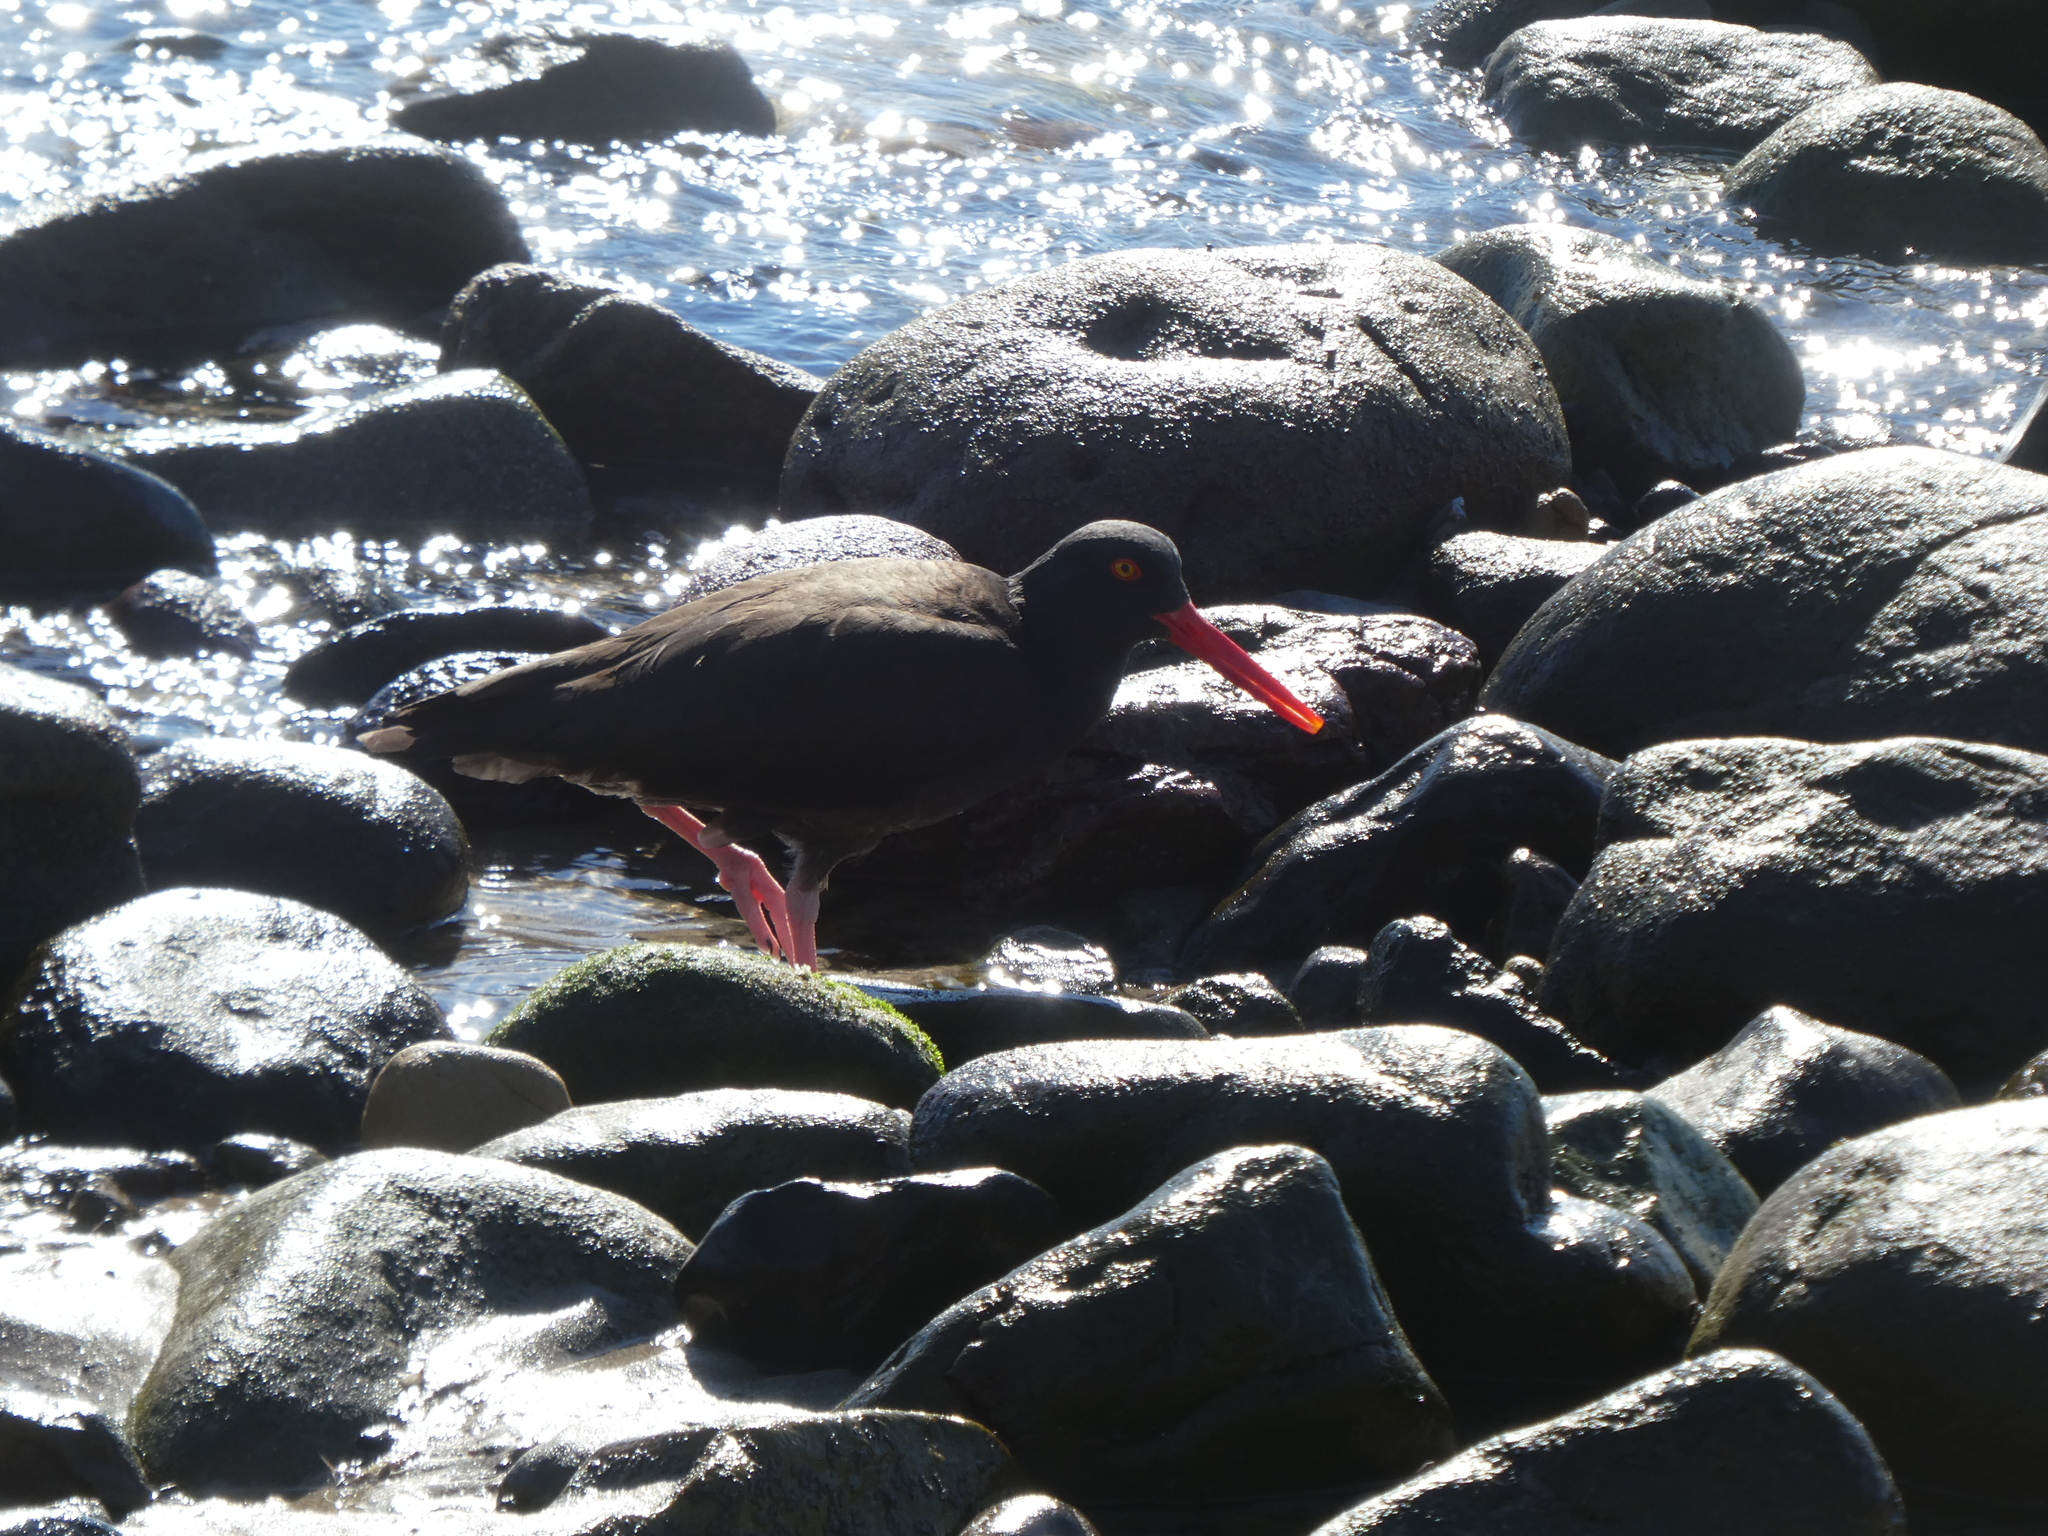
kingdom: Animalia
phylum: Chordata
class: Aves
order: Charadriiformes
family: Haematopodidae
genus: Haematopus
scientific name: Haematopus bachmani
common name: Black oystercatcher
